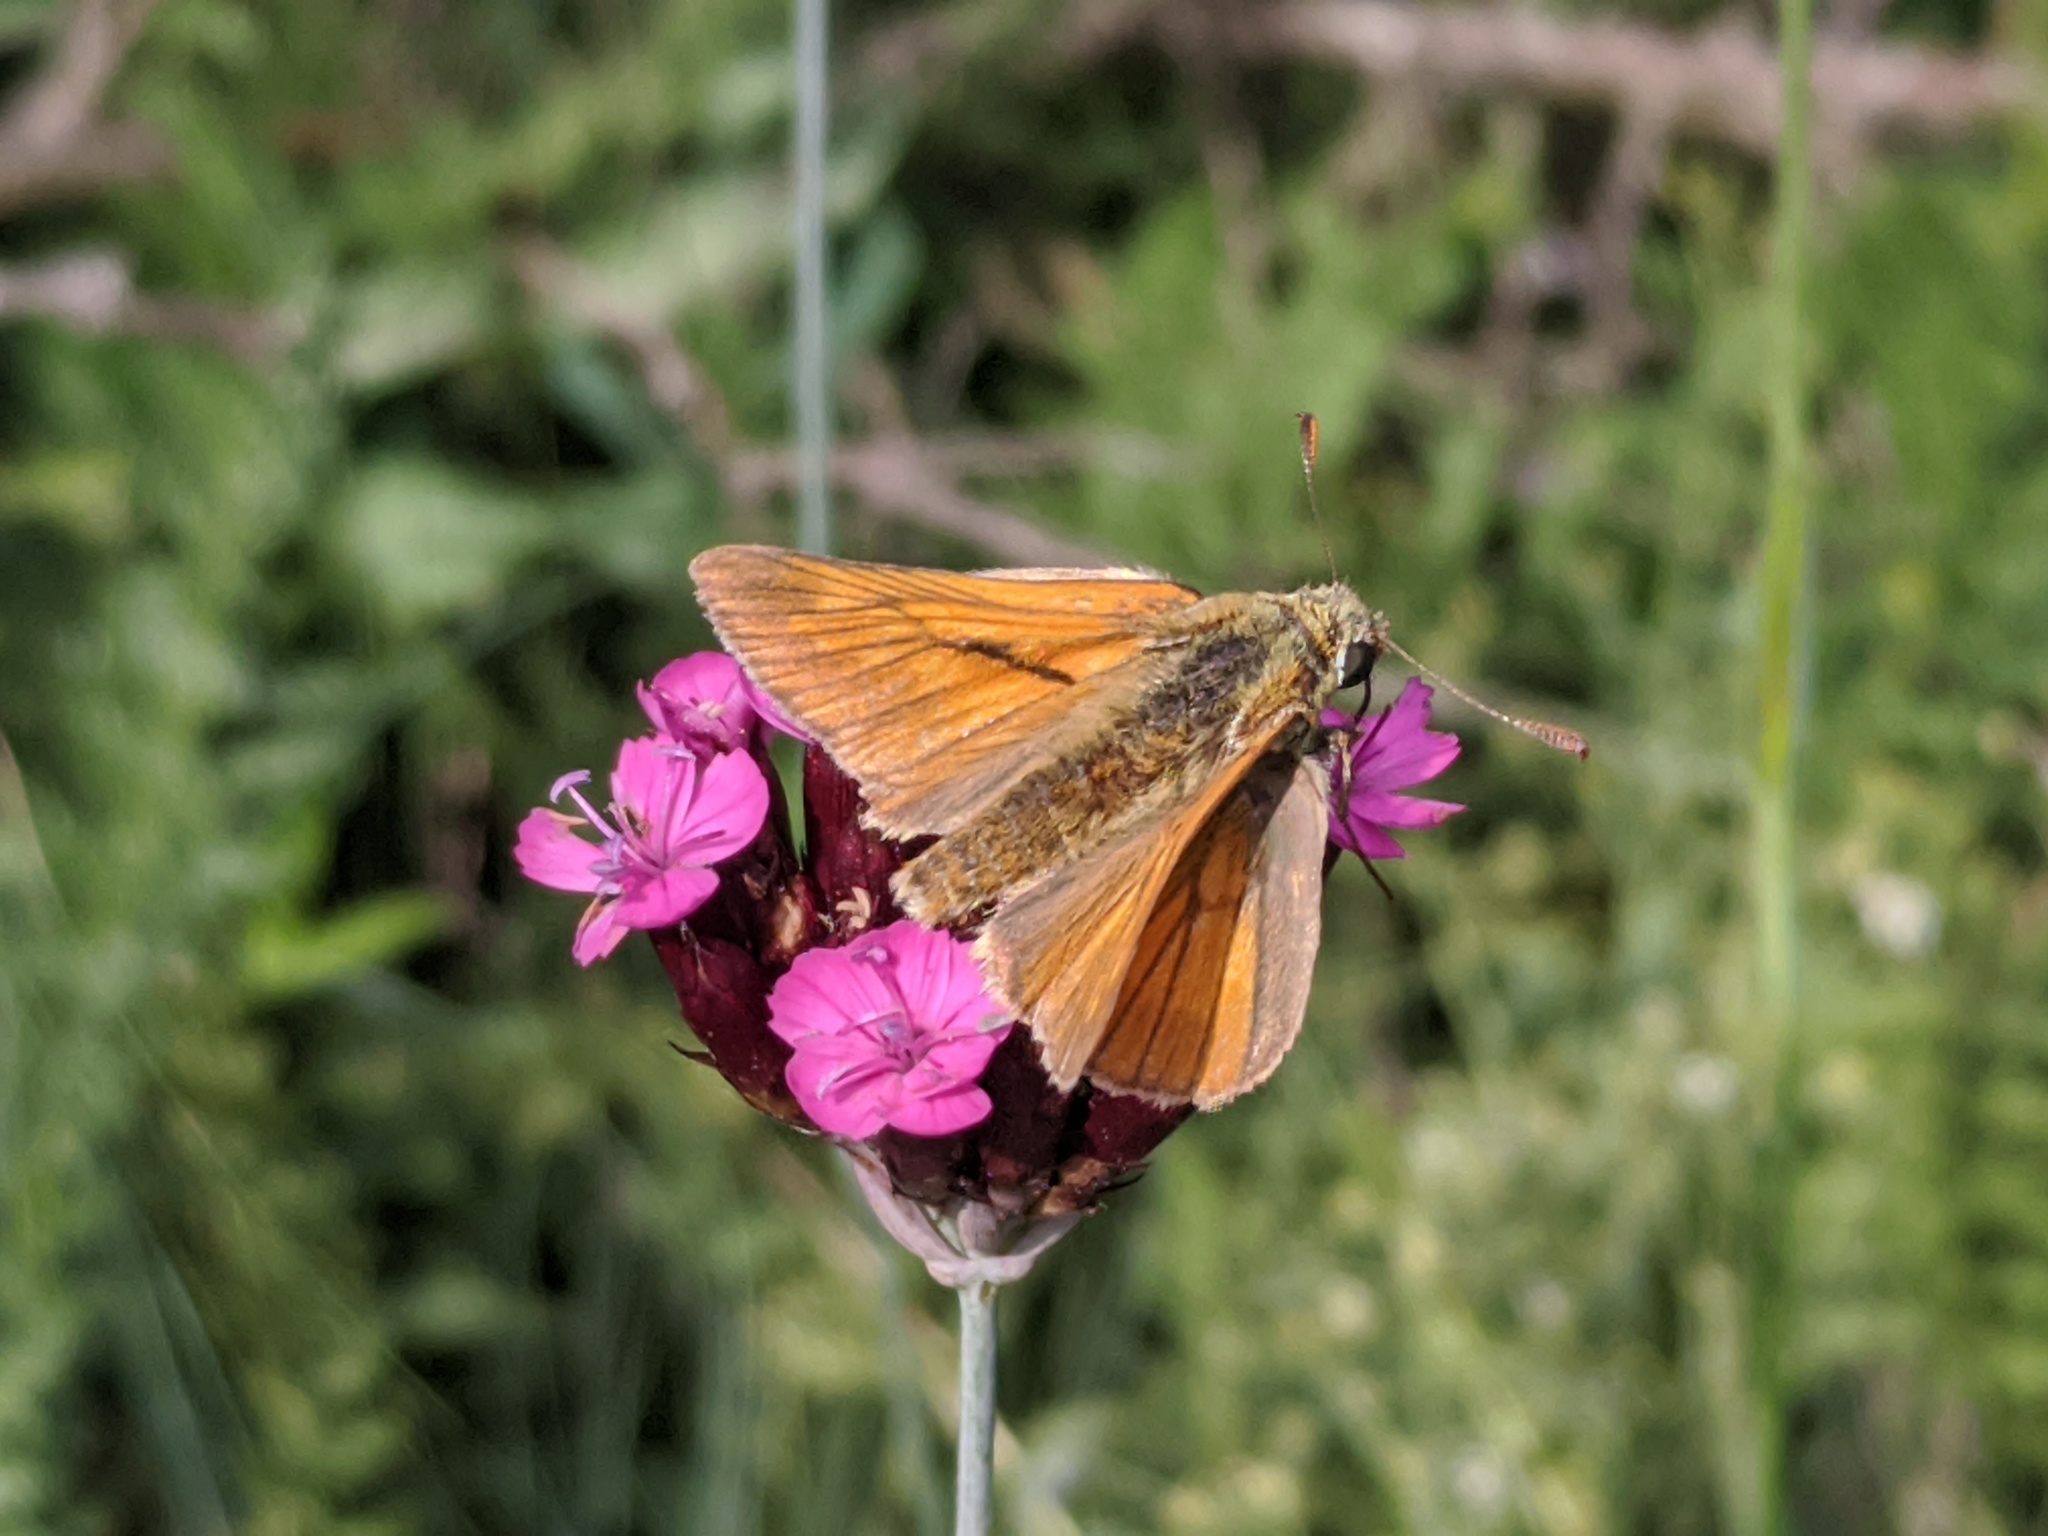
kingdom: Animalia
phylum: Arthropoda
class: Insecta
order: Lepidoptera
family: Hesperiidae
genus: Ochlodes
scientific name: Ochlodes venata
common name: Large skipper
